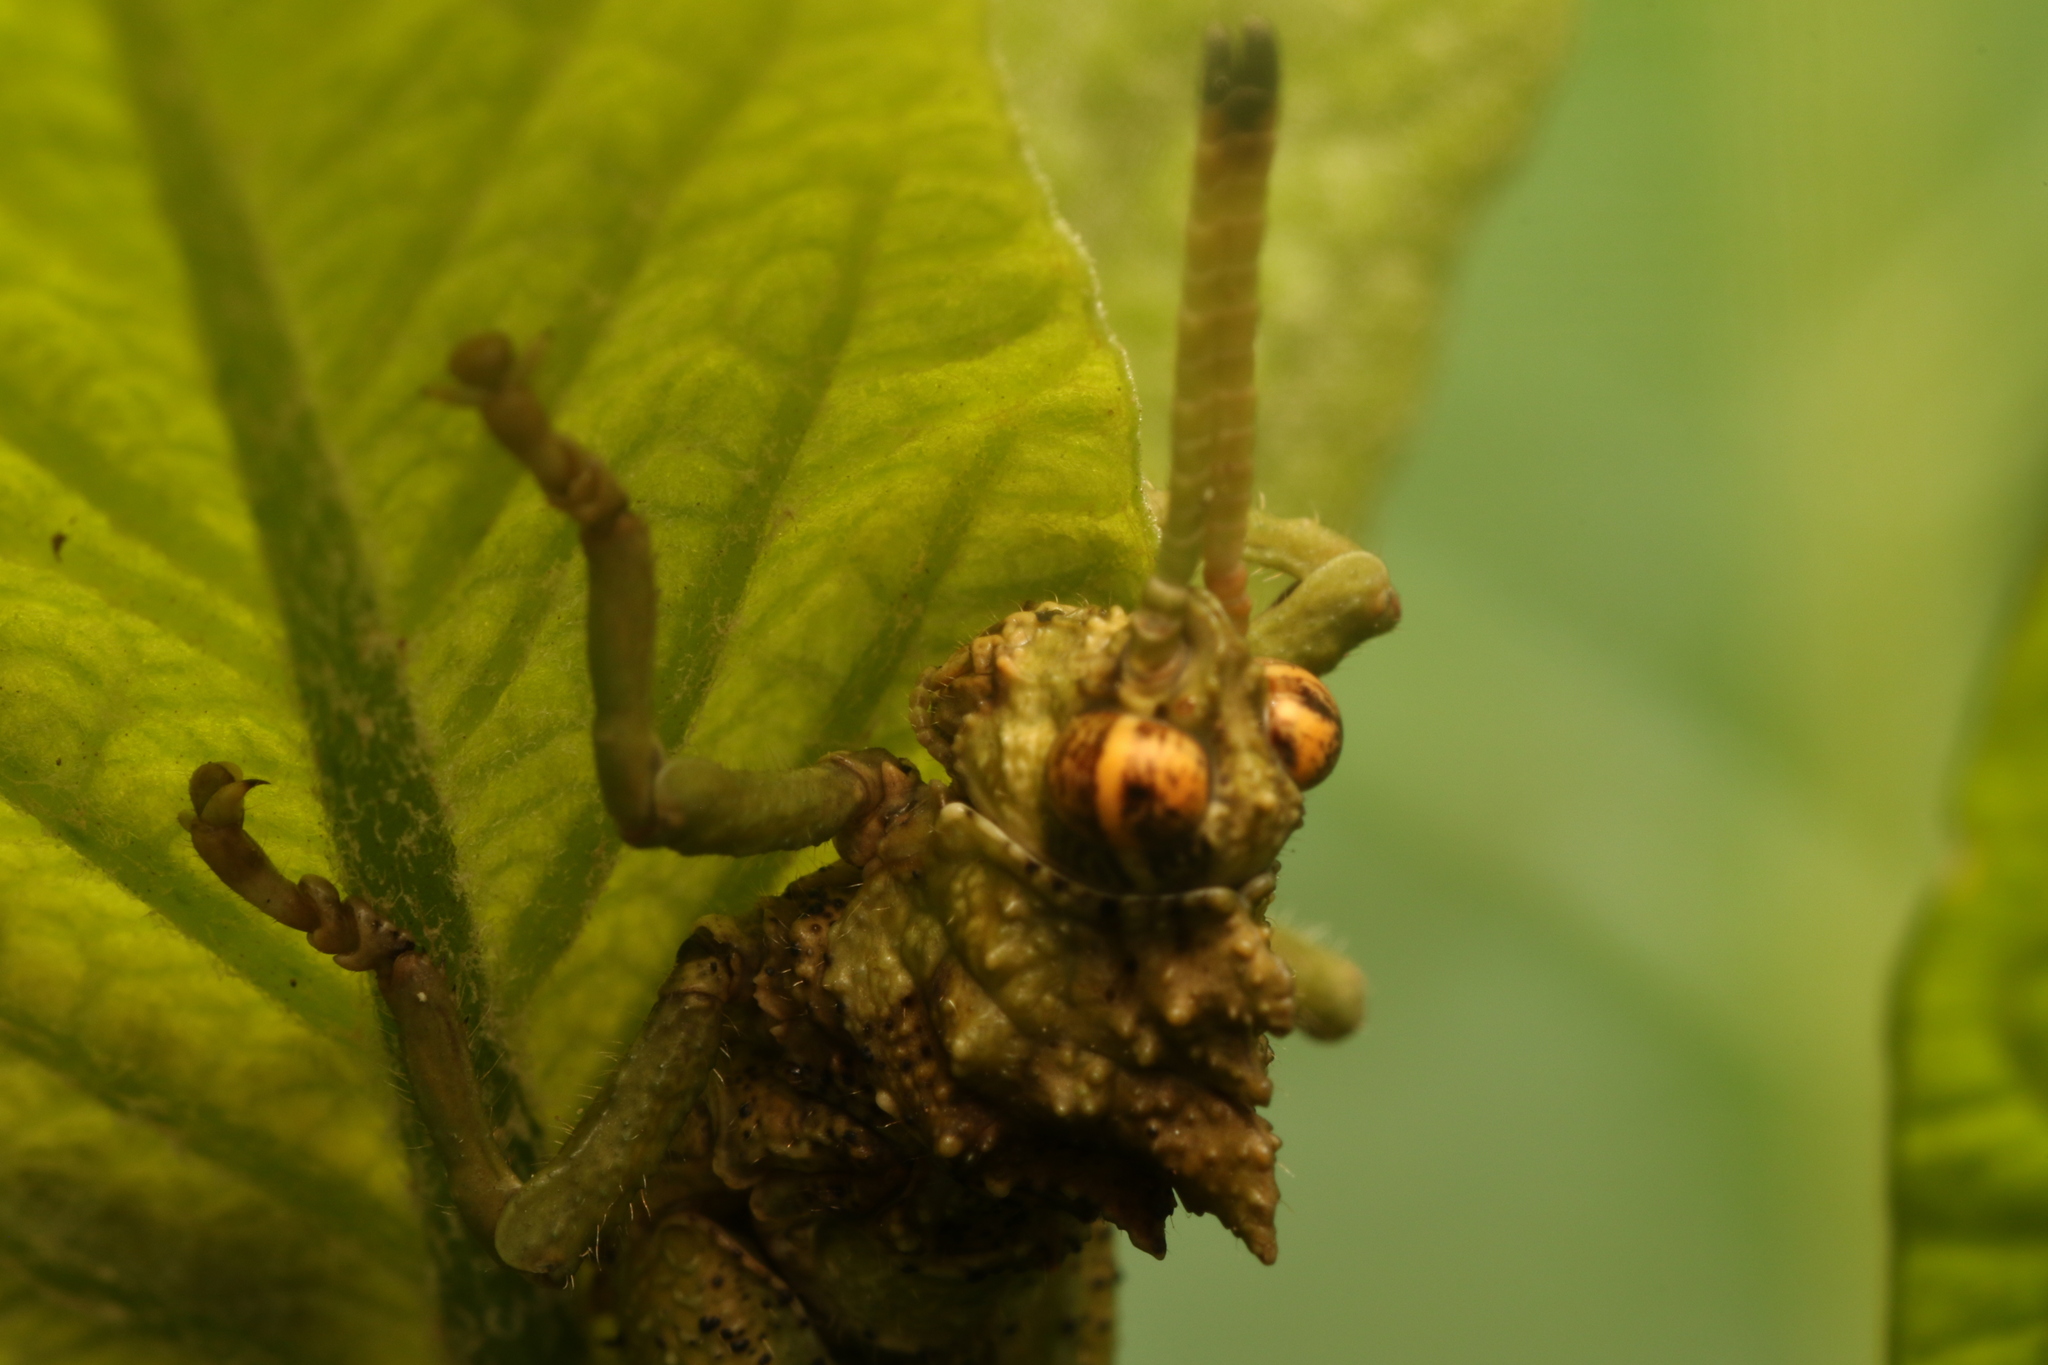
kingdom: Animalia
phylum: Arthropoda
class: Insecta
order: Orthoptera
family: Acrididae
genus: Pycnosarcus
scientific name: Pycnosarcus atavus
